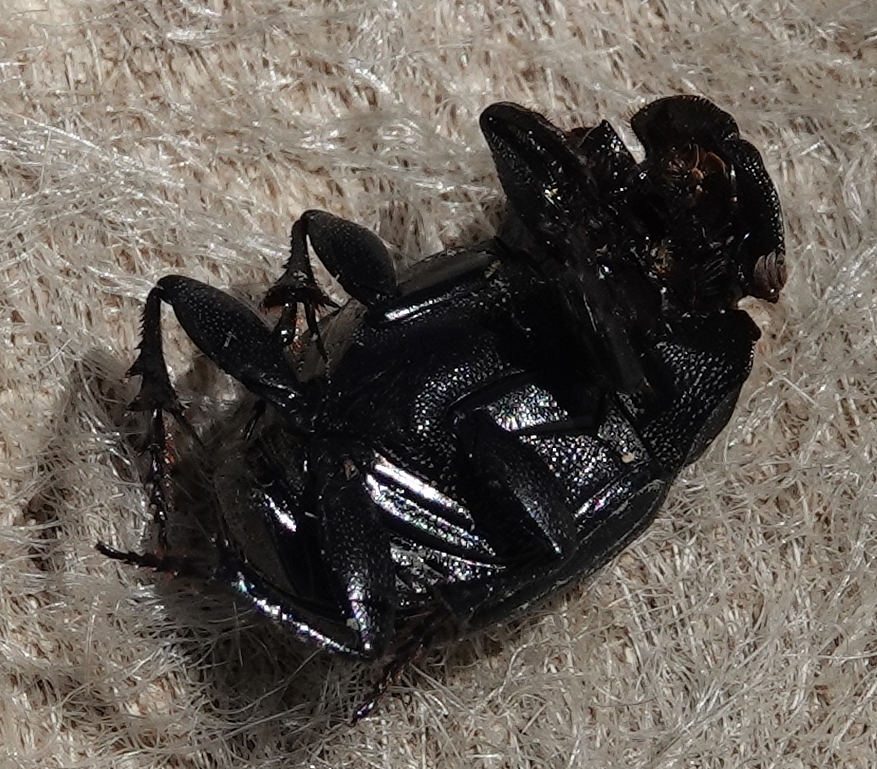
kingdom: Animalia
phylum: Arthropoda
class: Insecta
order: Coleoptera
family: Scarabaeidae
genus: Copris
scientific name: Copris fricator
